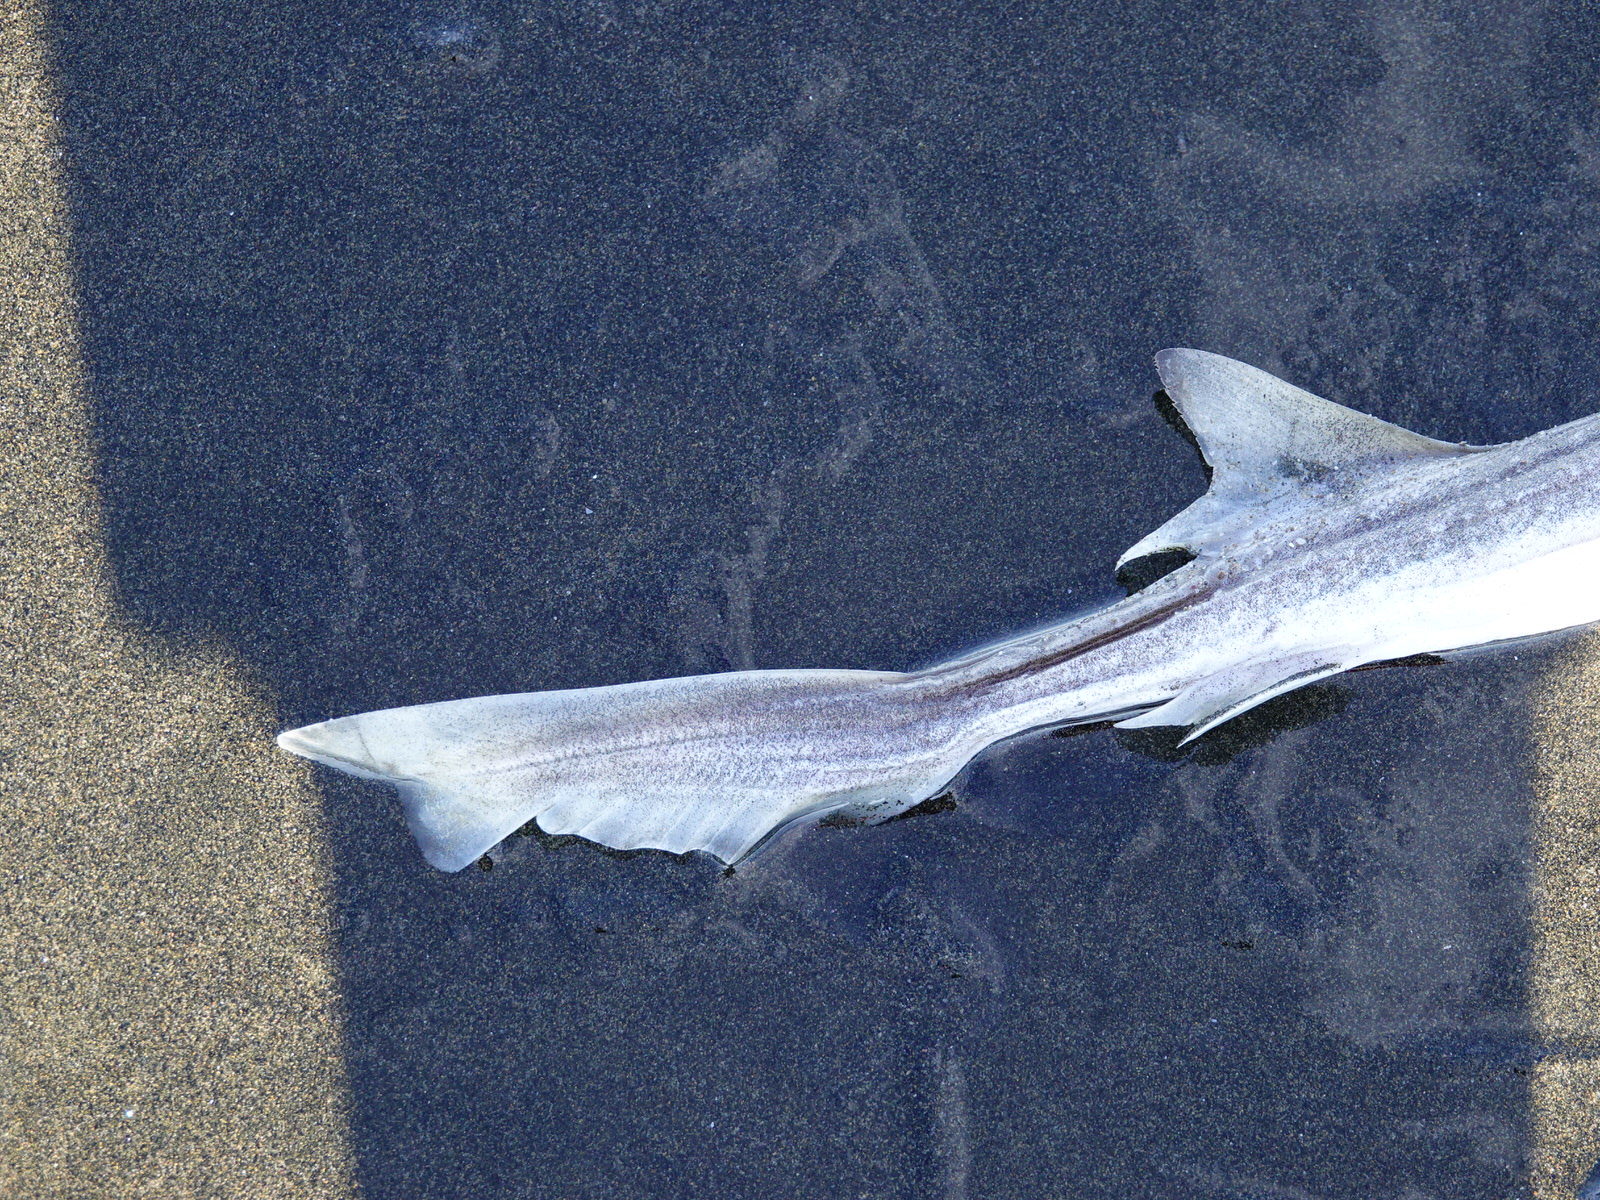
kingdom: Animalia
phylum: Chordata
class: Elasmobranchii
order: Carcharhiniformes
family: Triakidae
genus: Mustelus
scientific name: Mustelus lenticulatus
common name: Gummy shark
